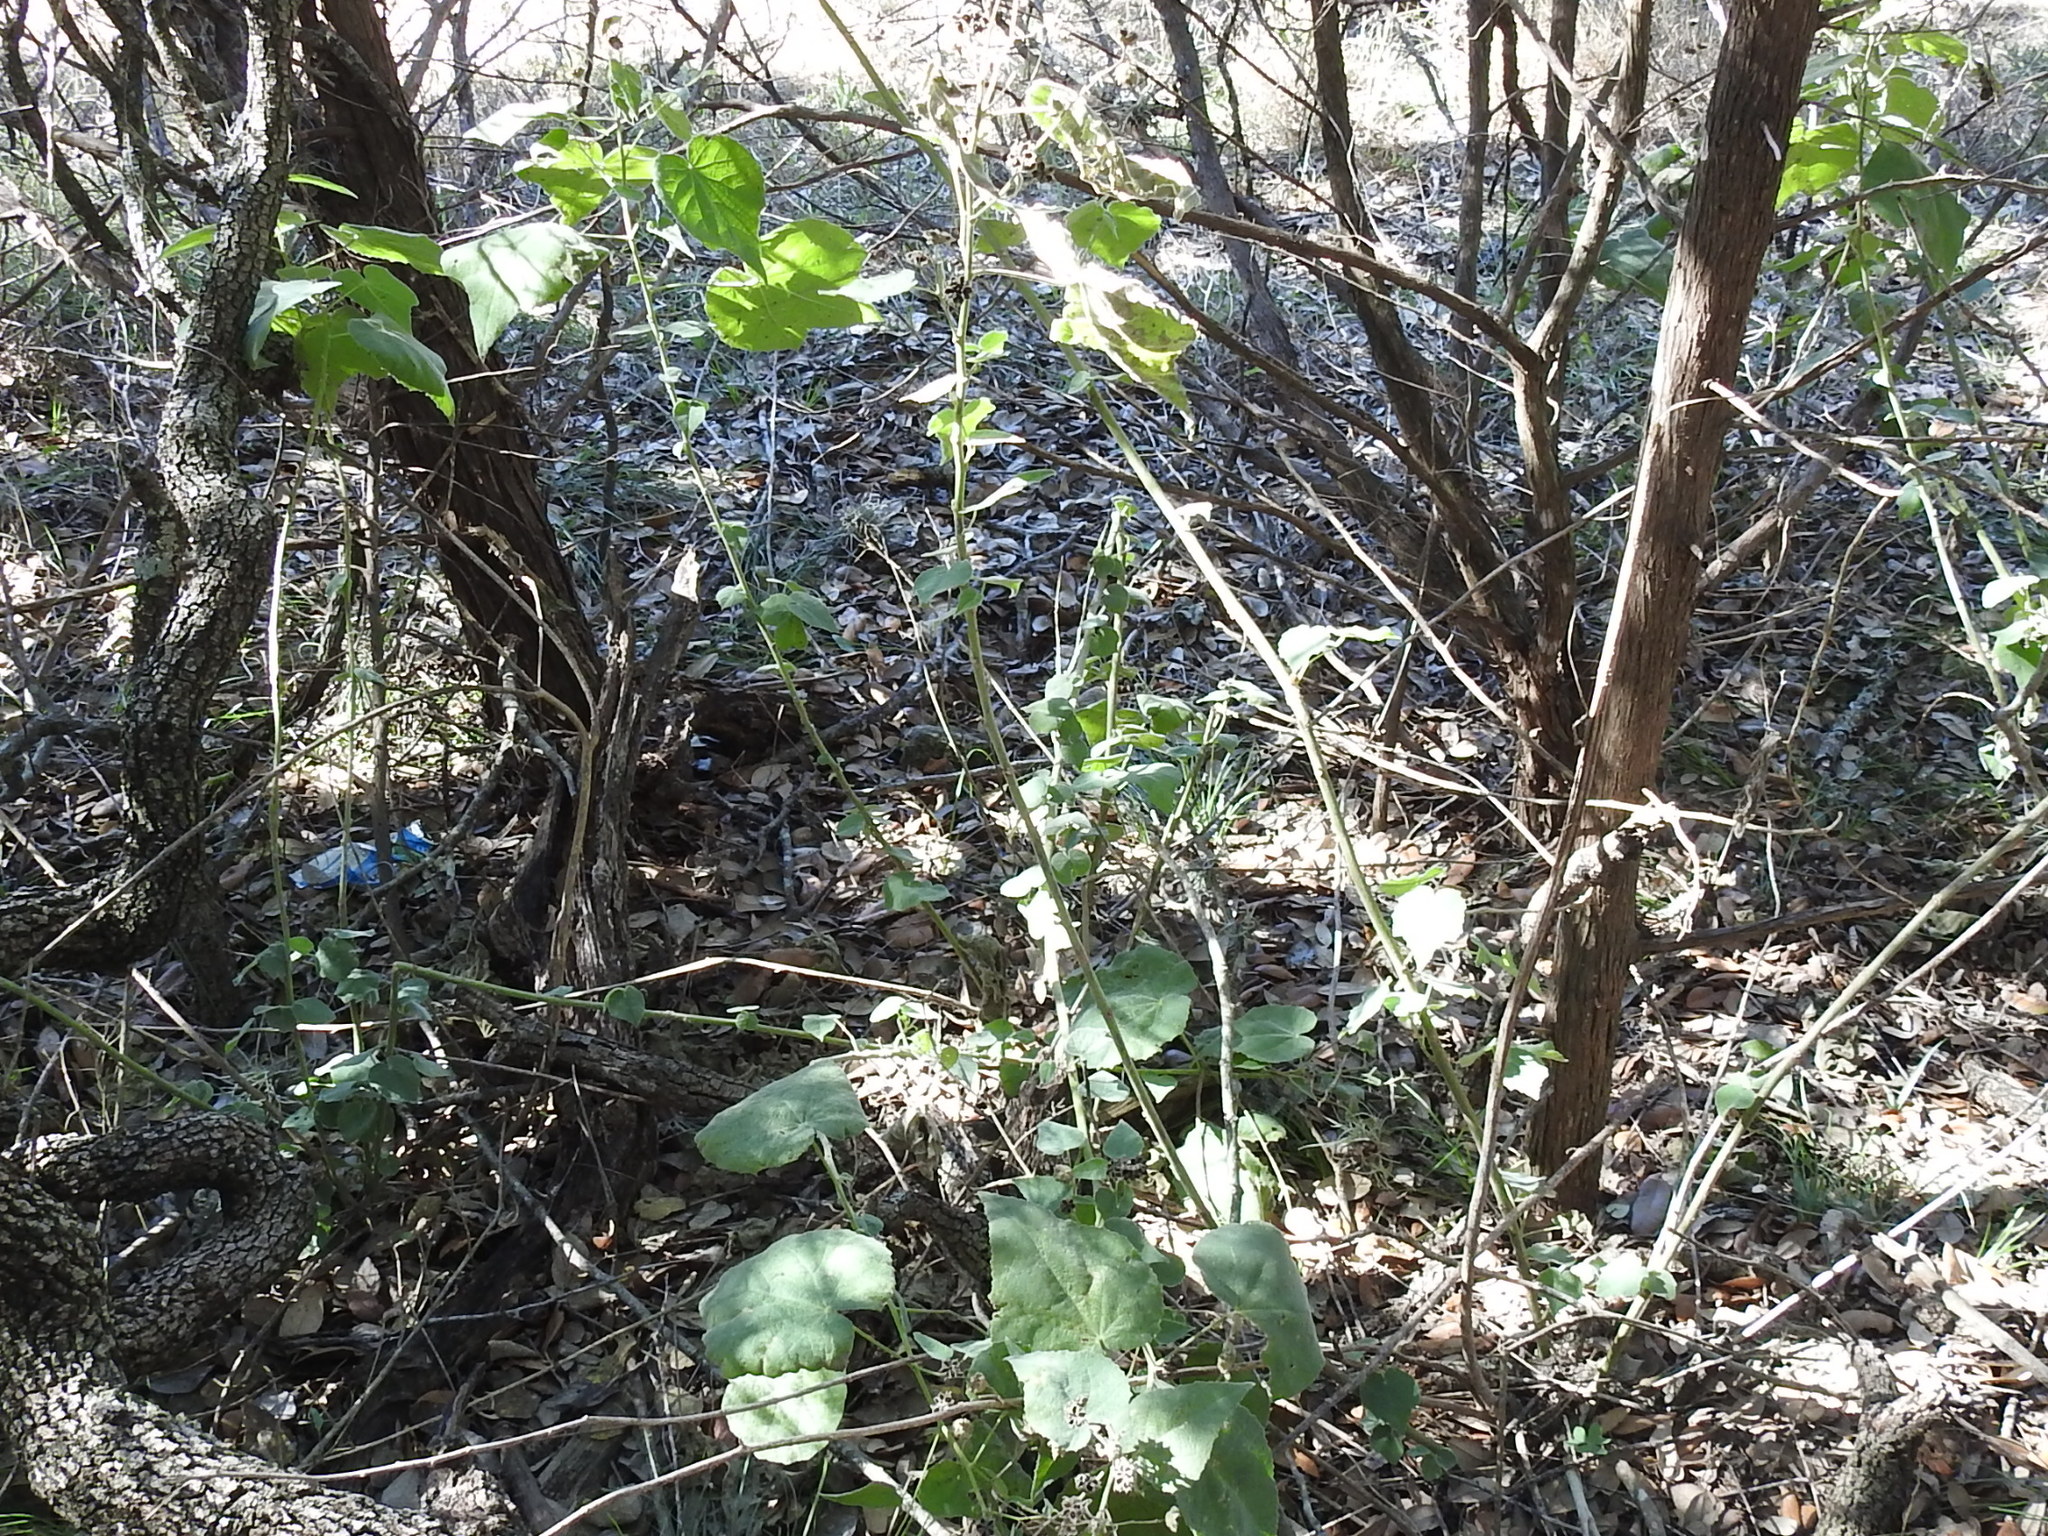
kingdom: Plantae
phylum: Tracheophyta
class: Magnoliopsida
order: Malvales
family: Malvaceae
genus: Allowissadula
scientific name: Allowissadula holosericea
